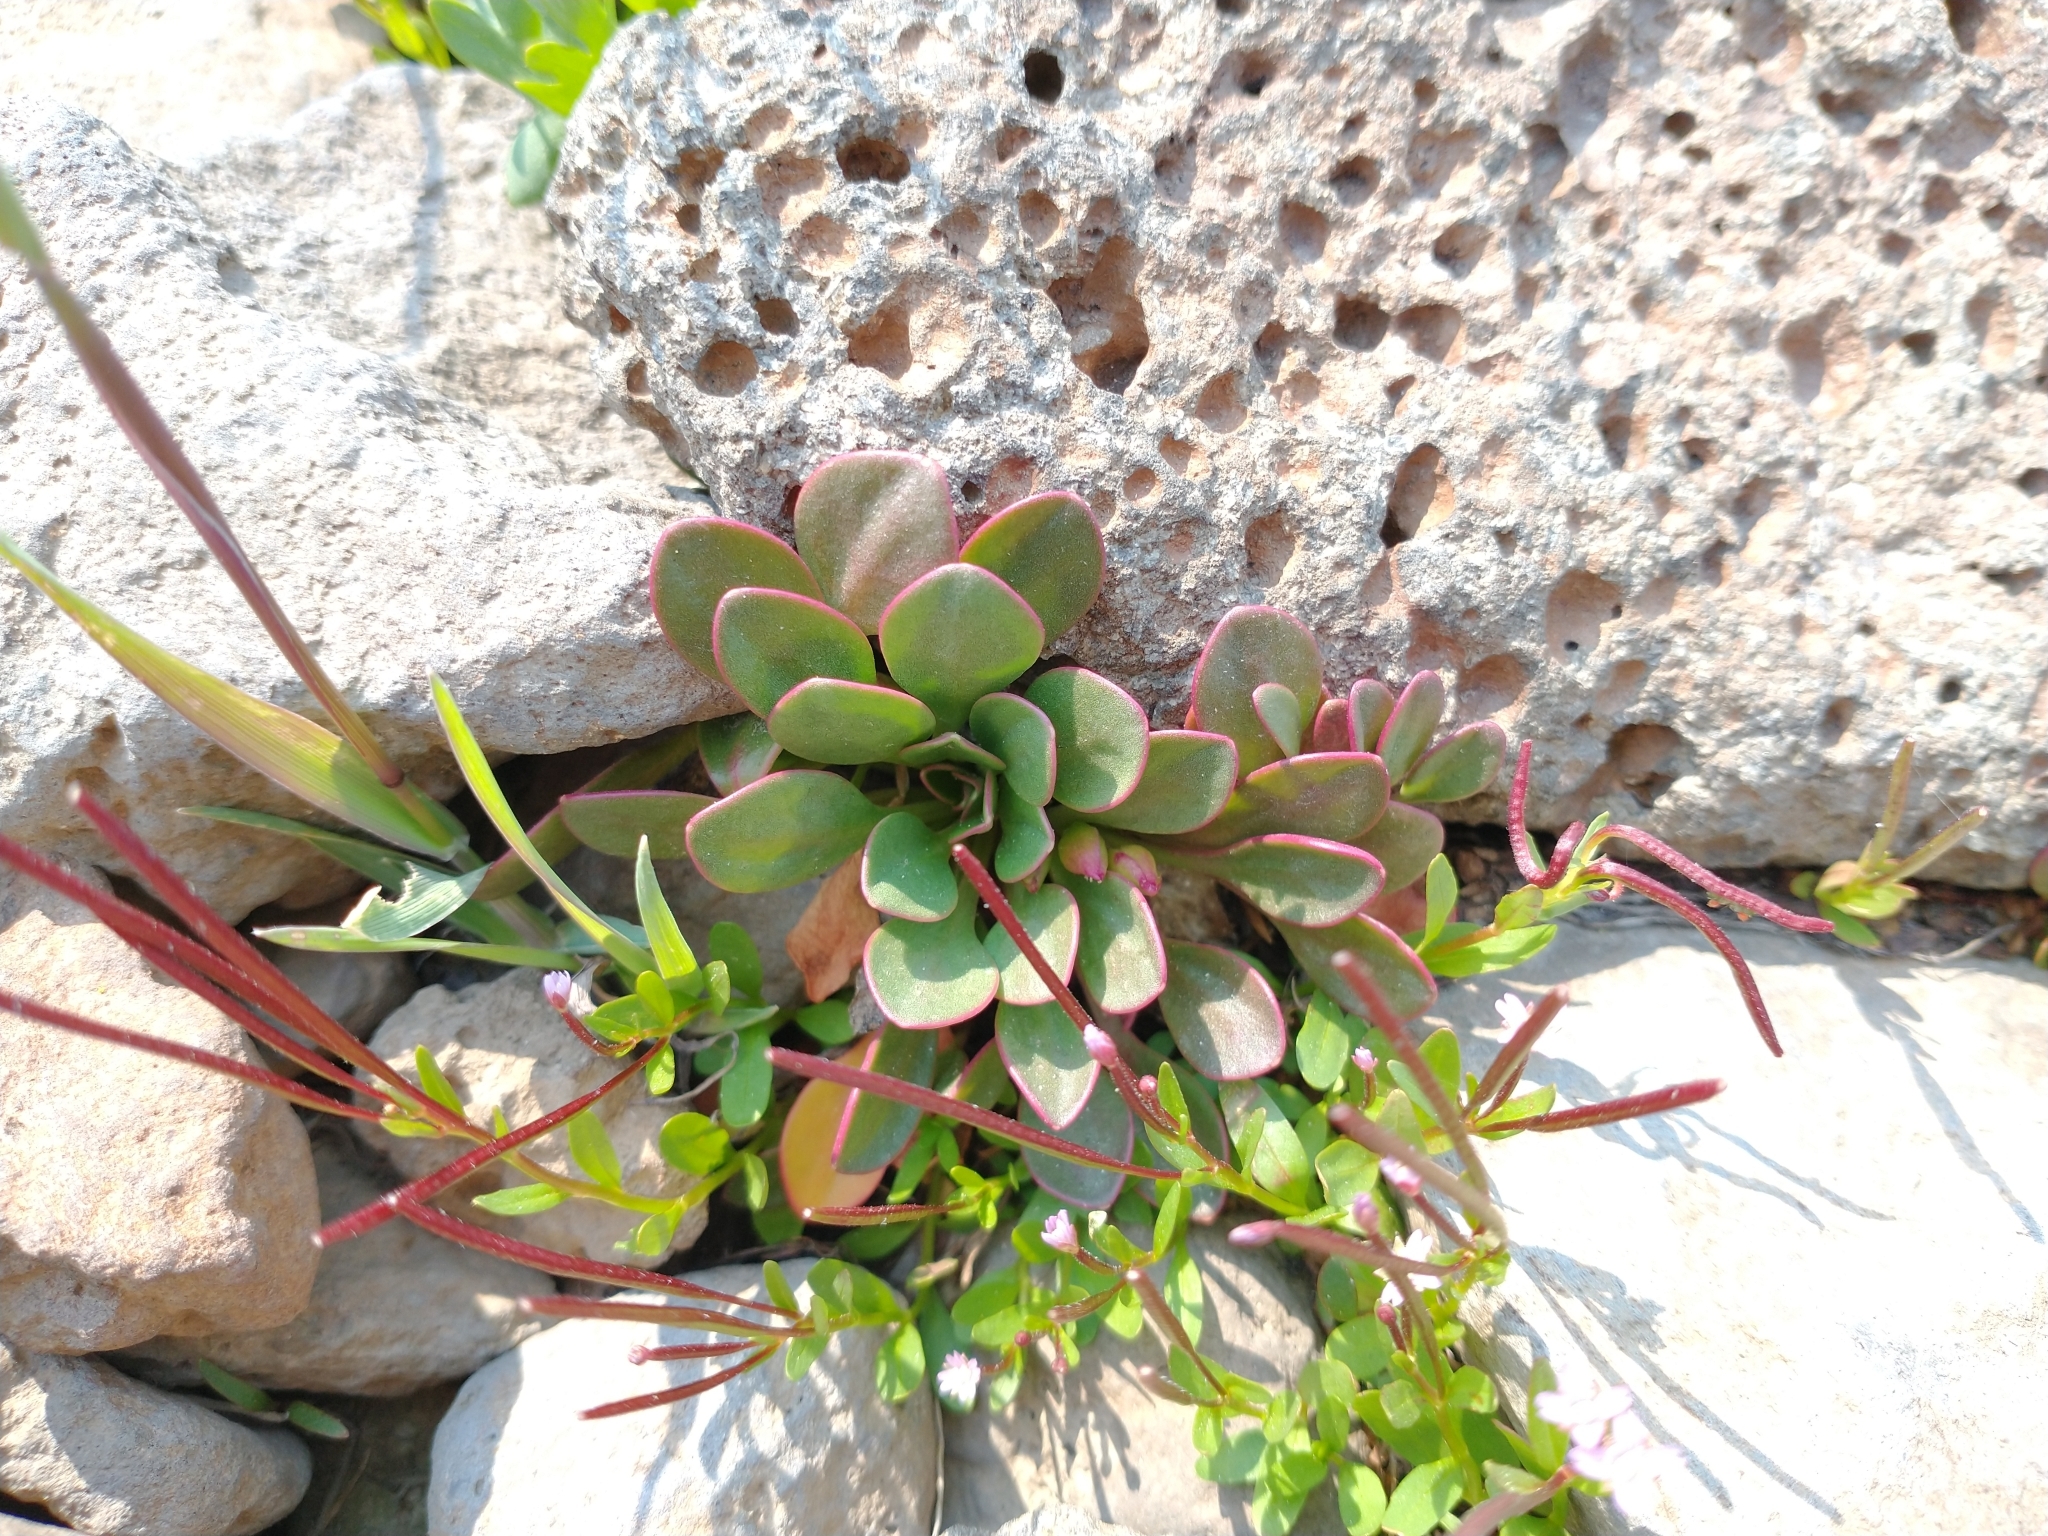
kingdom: Plantae
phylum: Tracheophyta
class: Magnoliopsida
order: Caryophyllales
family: Montiaceae
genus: Claytonia
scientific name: Claytonia megarhiza
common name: Alpine spring beauty
